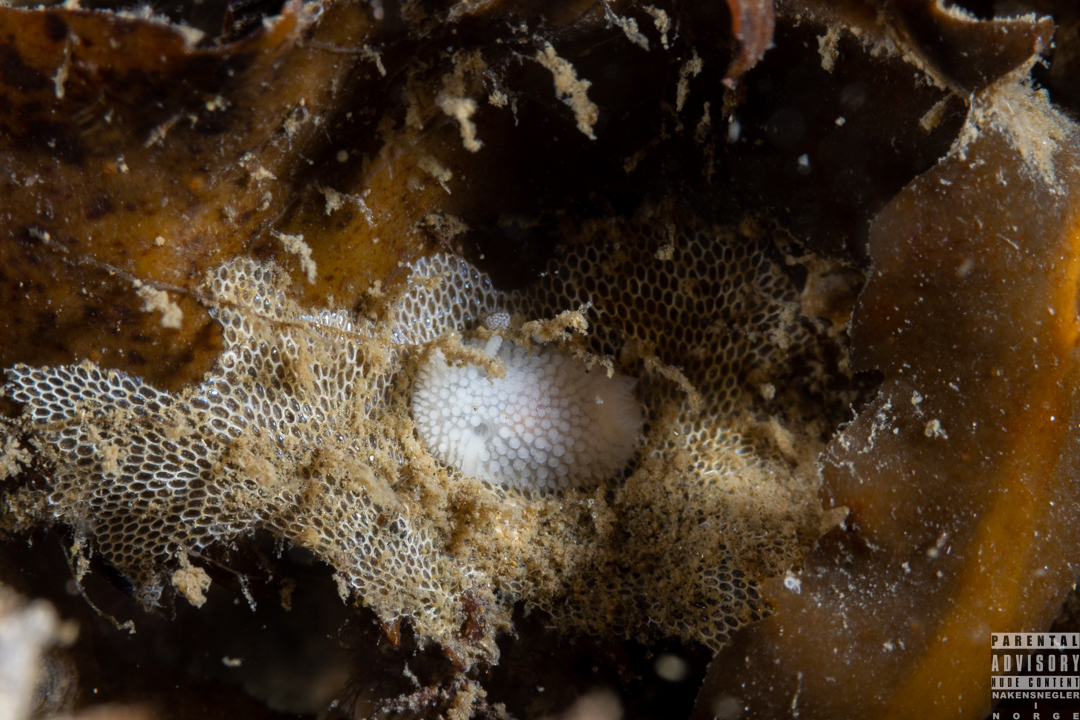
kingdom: Animalia
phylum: Mollusca
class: Gastropoda
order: Nudibranchia
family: Onchidorididae
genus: Onchidoris
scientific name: Onchidoris muricata
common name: Rough doris
